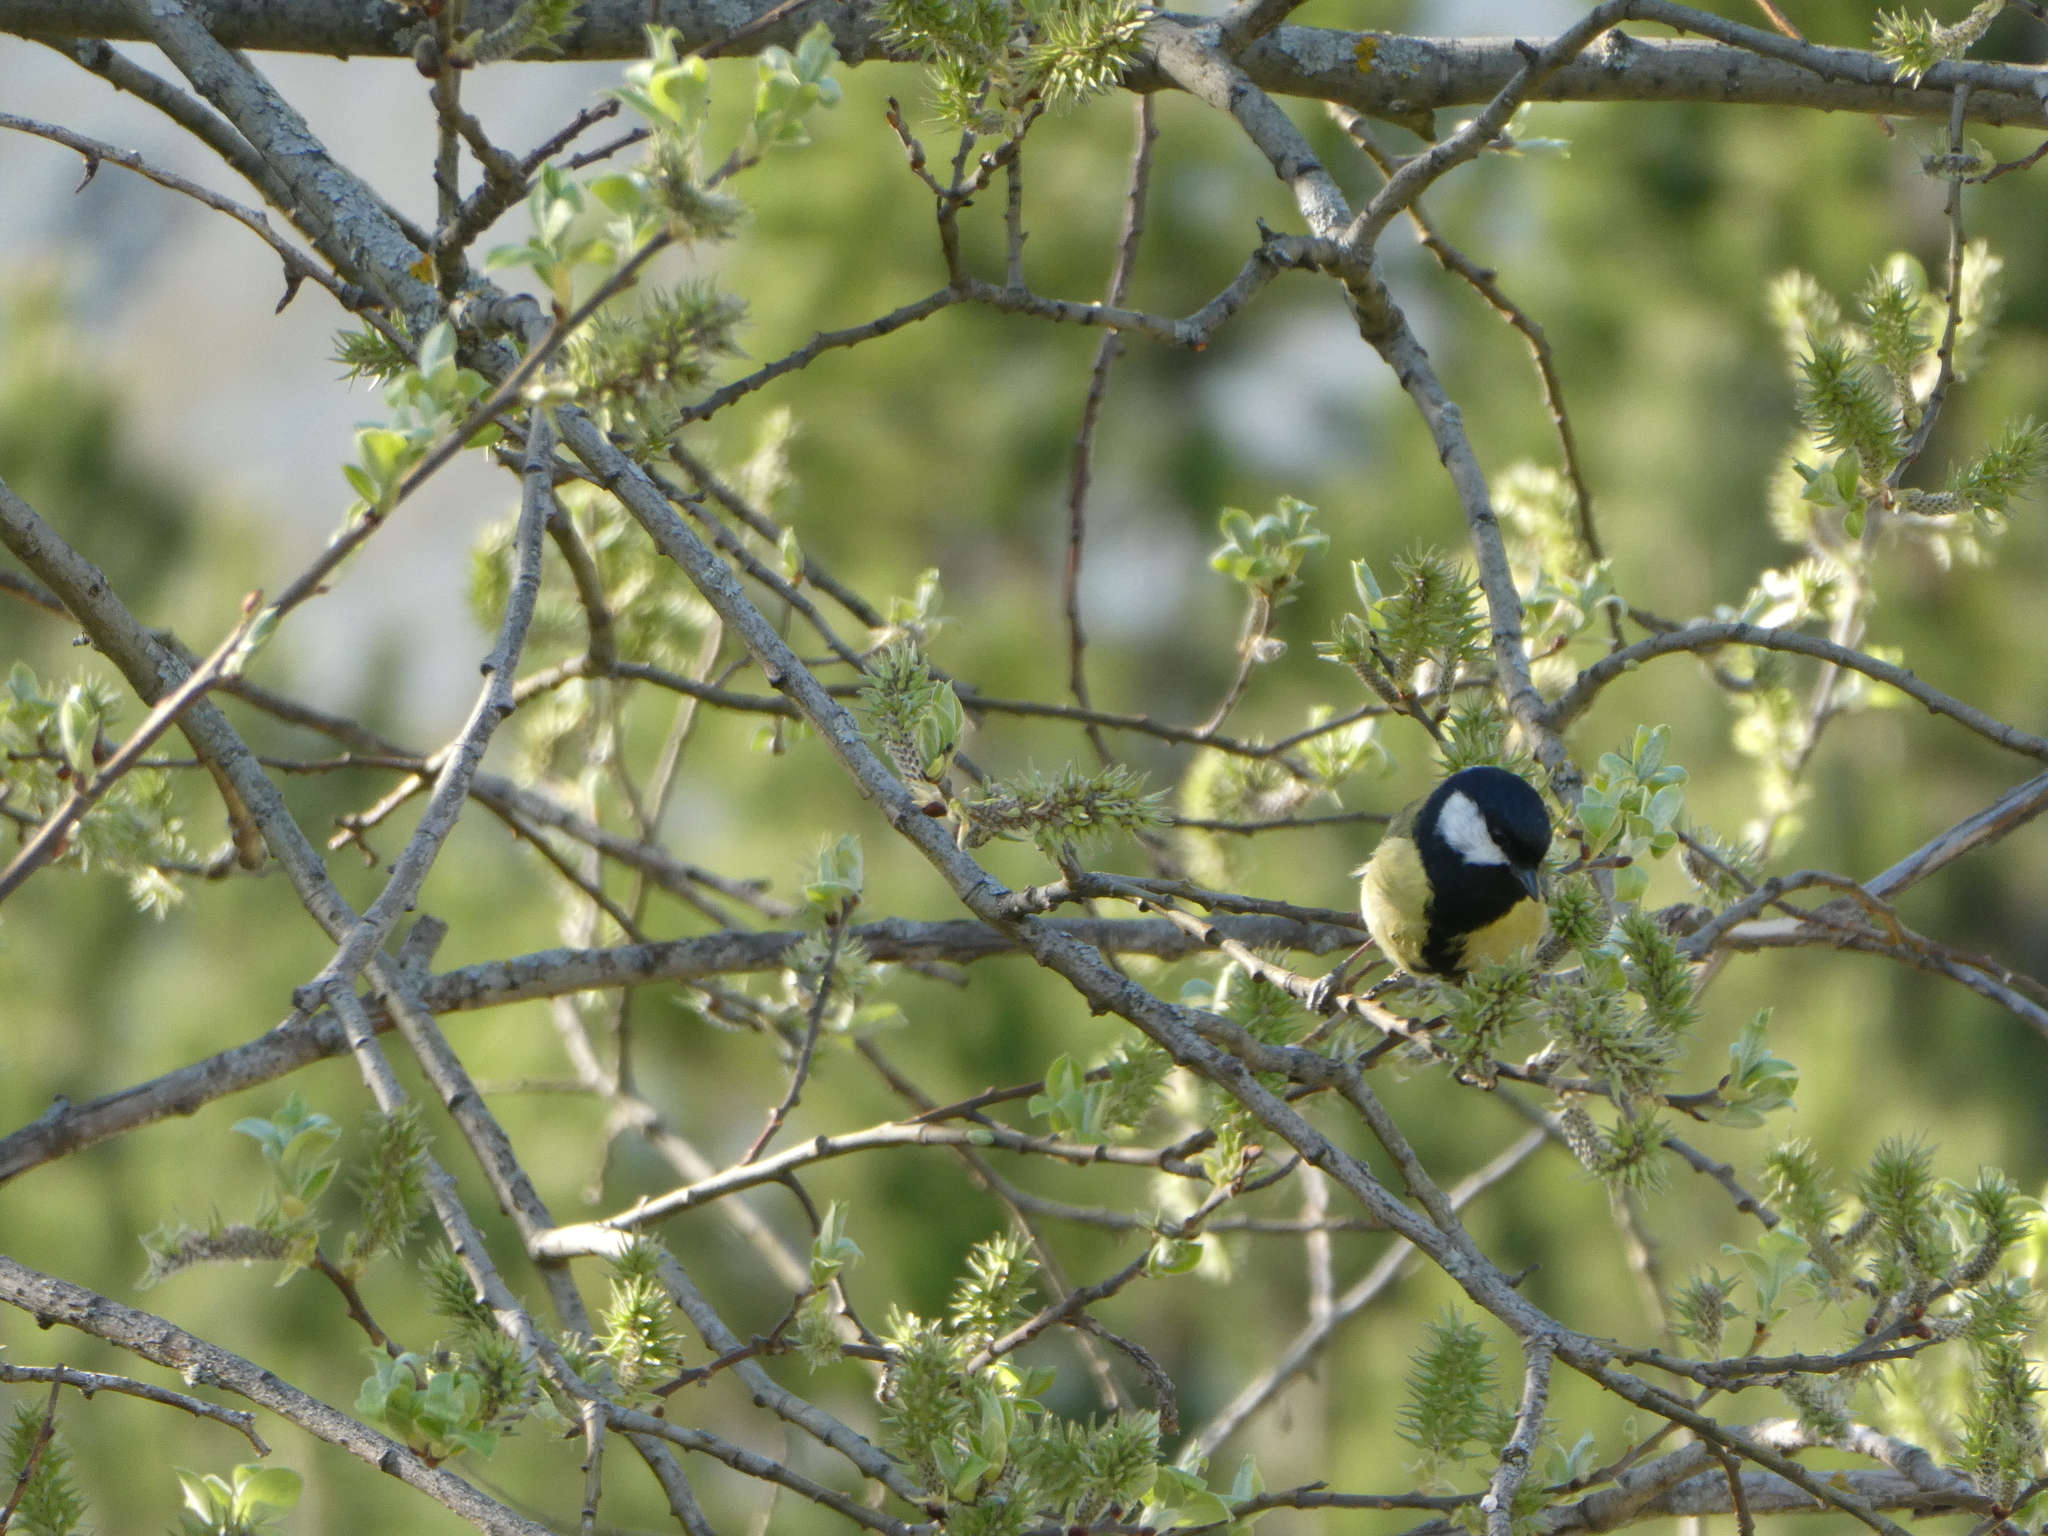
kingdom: Animalia
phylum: Chordata
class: Aves
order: Passeriformes
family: Paridae
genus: Parus
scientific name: Parus major
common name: Great tit
